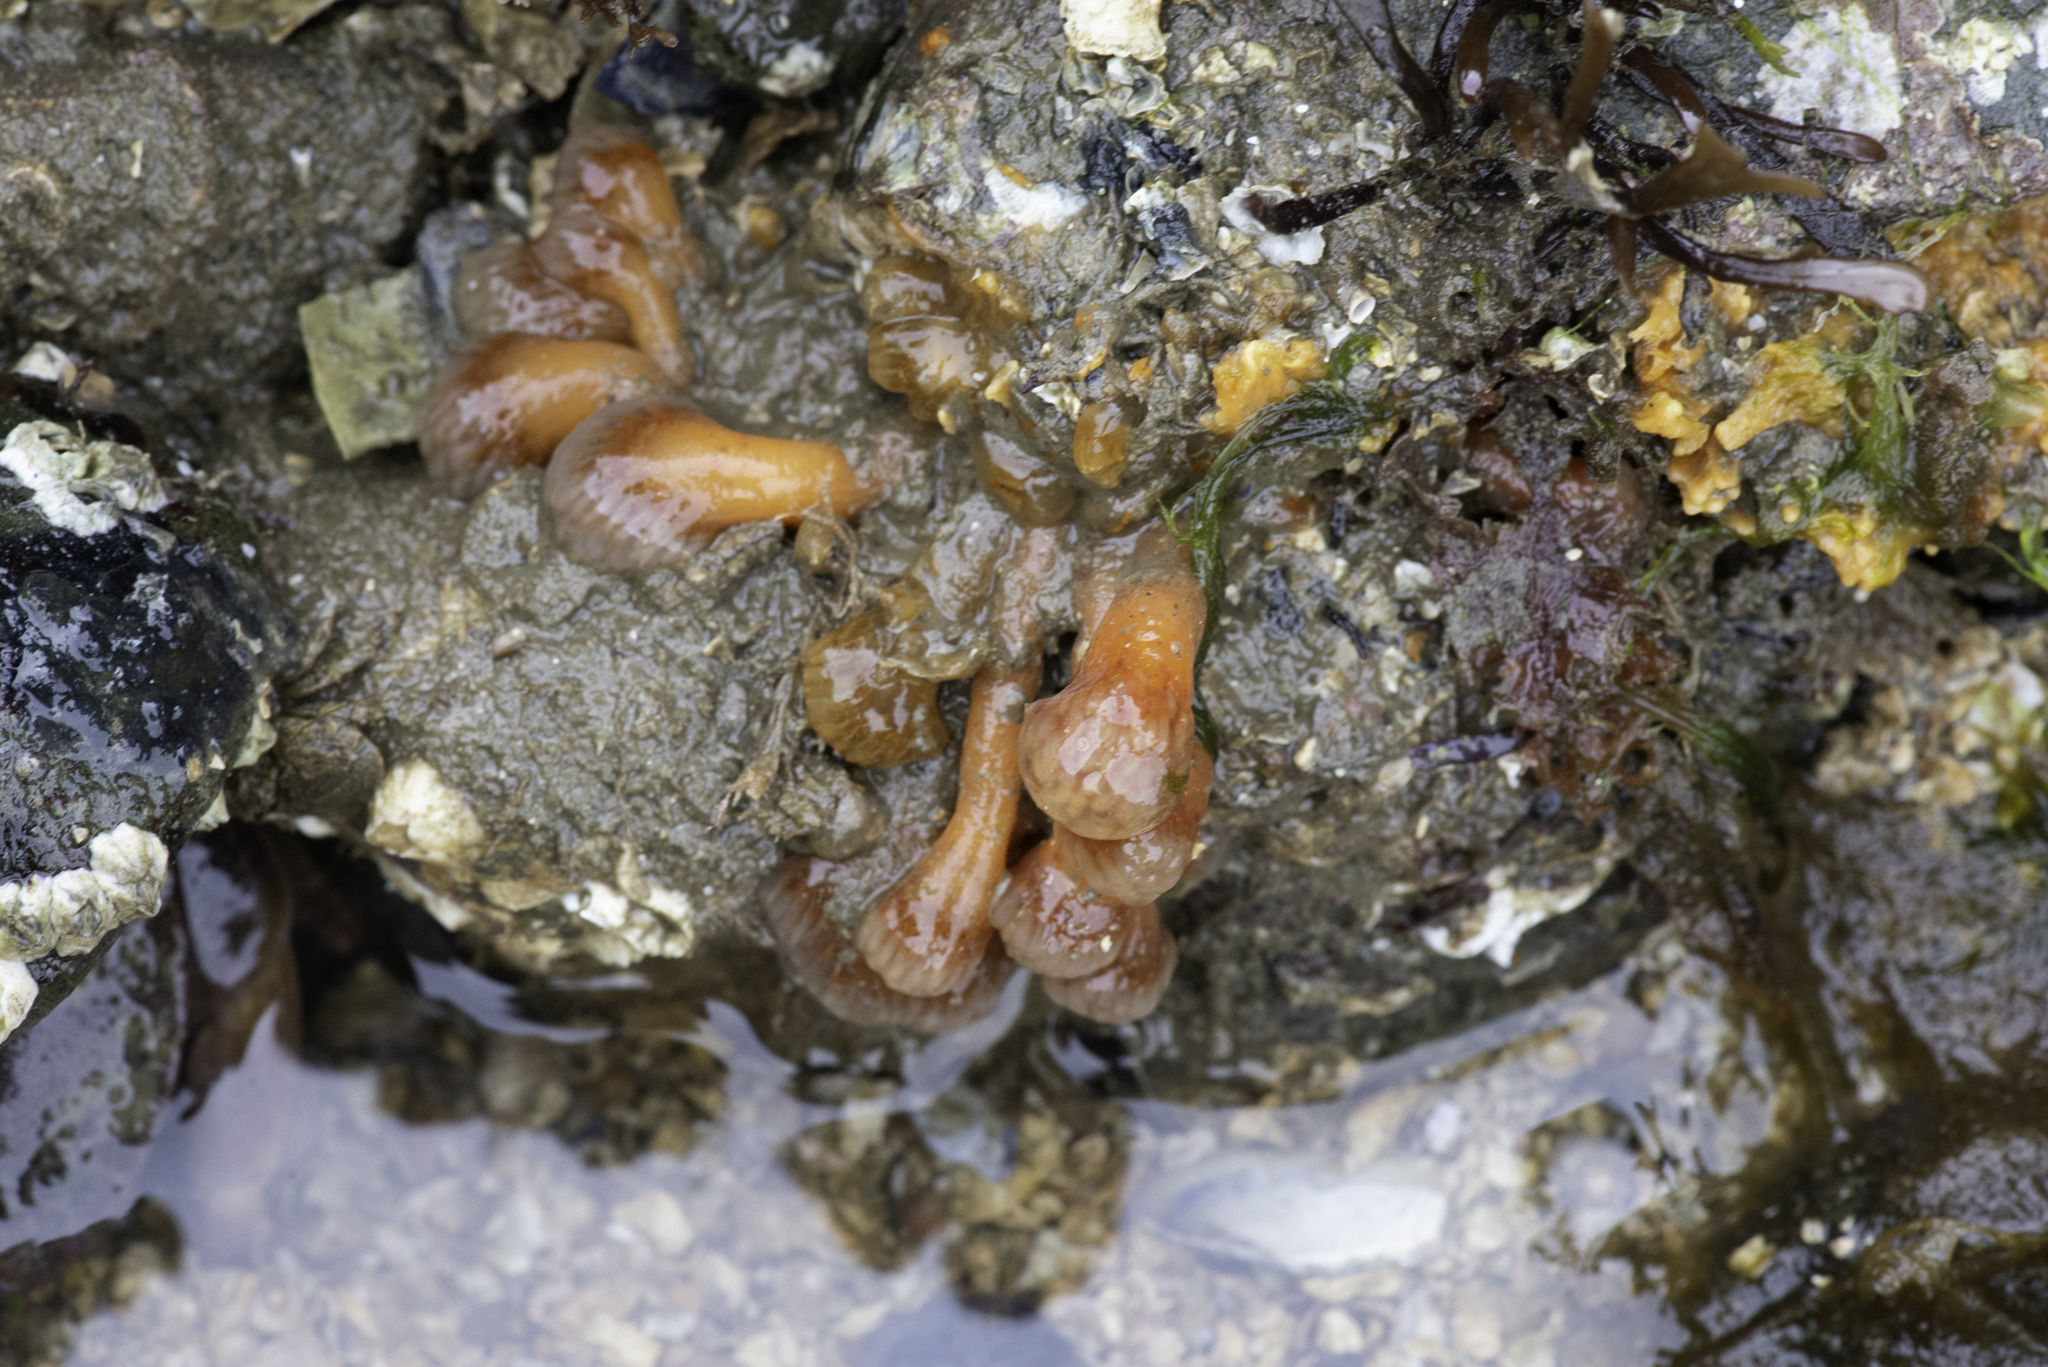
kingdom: Animalia
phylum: Chordata
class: Ascidiacea
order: Aplousobranchia
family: Polyclinidae
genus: Morchellium
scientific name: Morchellium argus
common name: Colonial sesquirt
